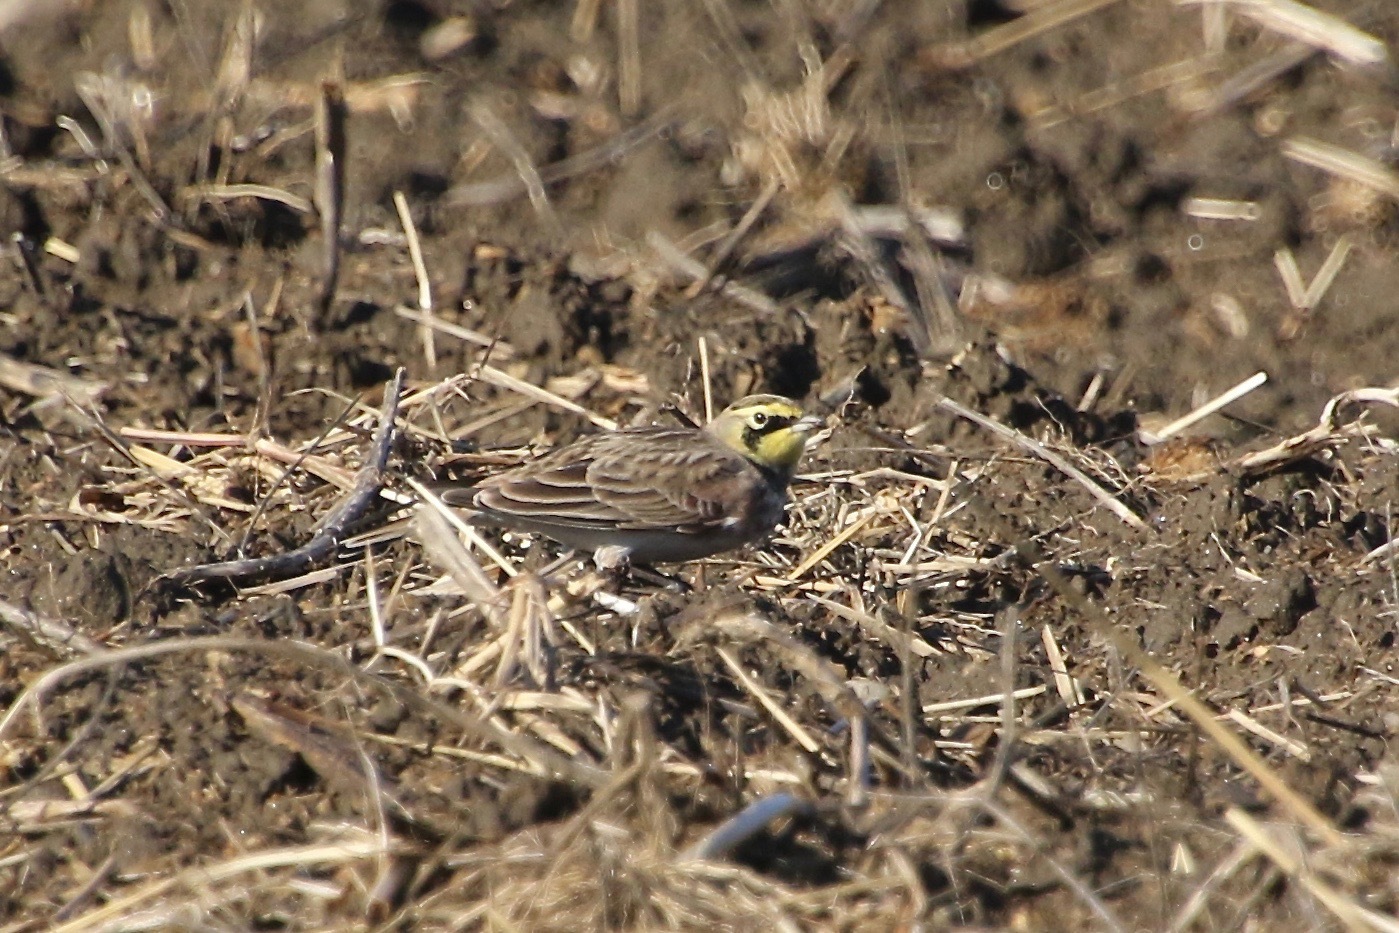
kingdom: Animalia
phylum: Chordata
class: Aves
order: Passeriformes
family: Alaudidae
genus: Eremophila
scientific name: Eremophila alpestris
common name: Horned lark
